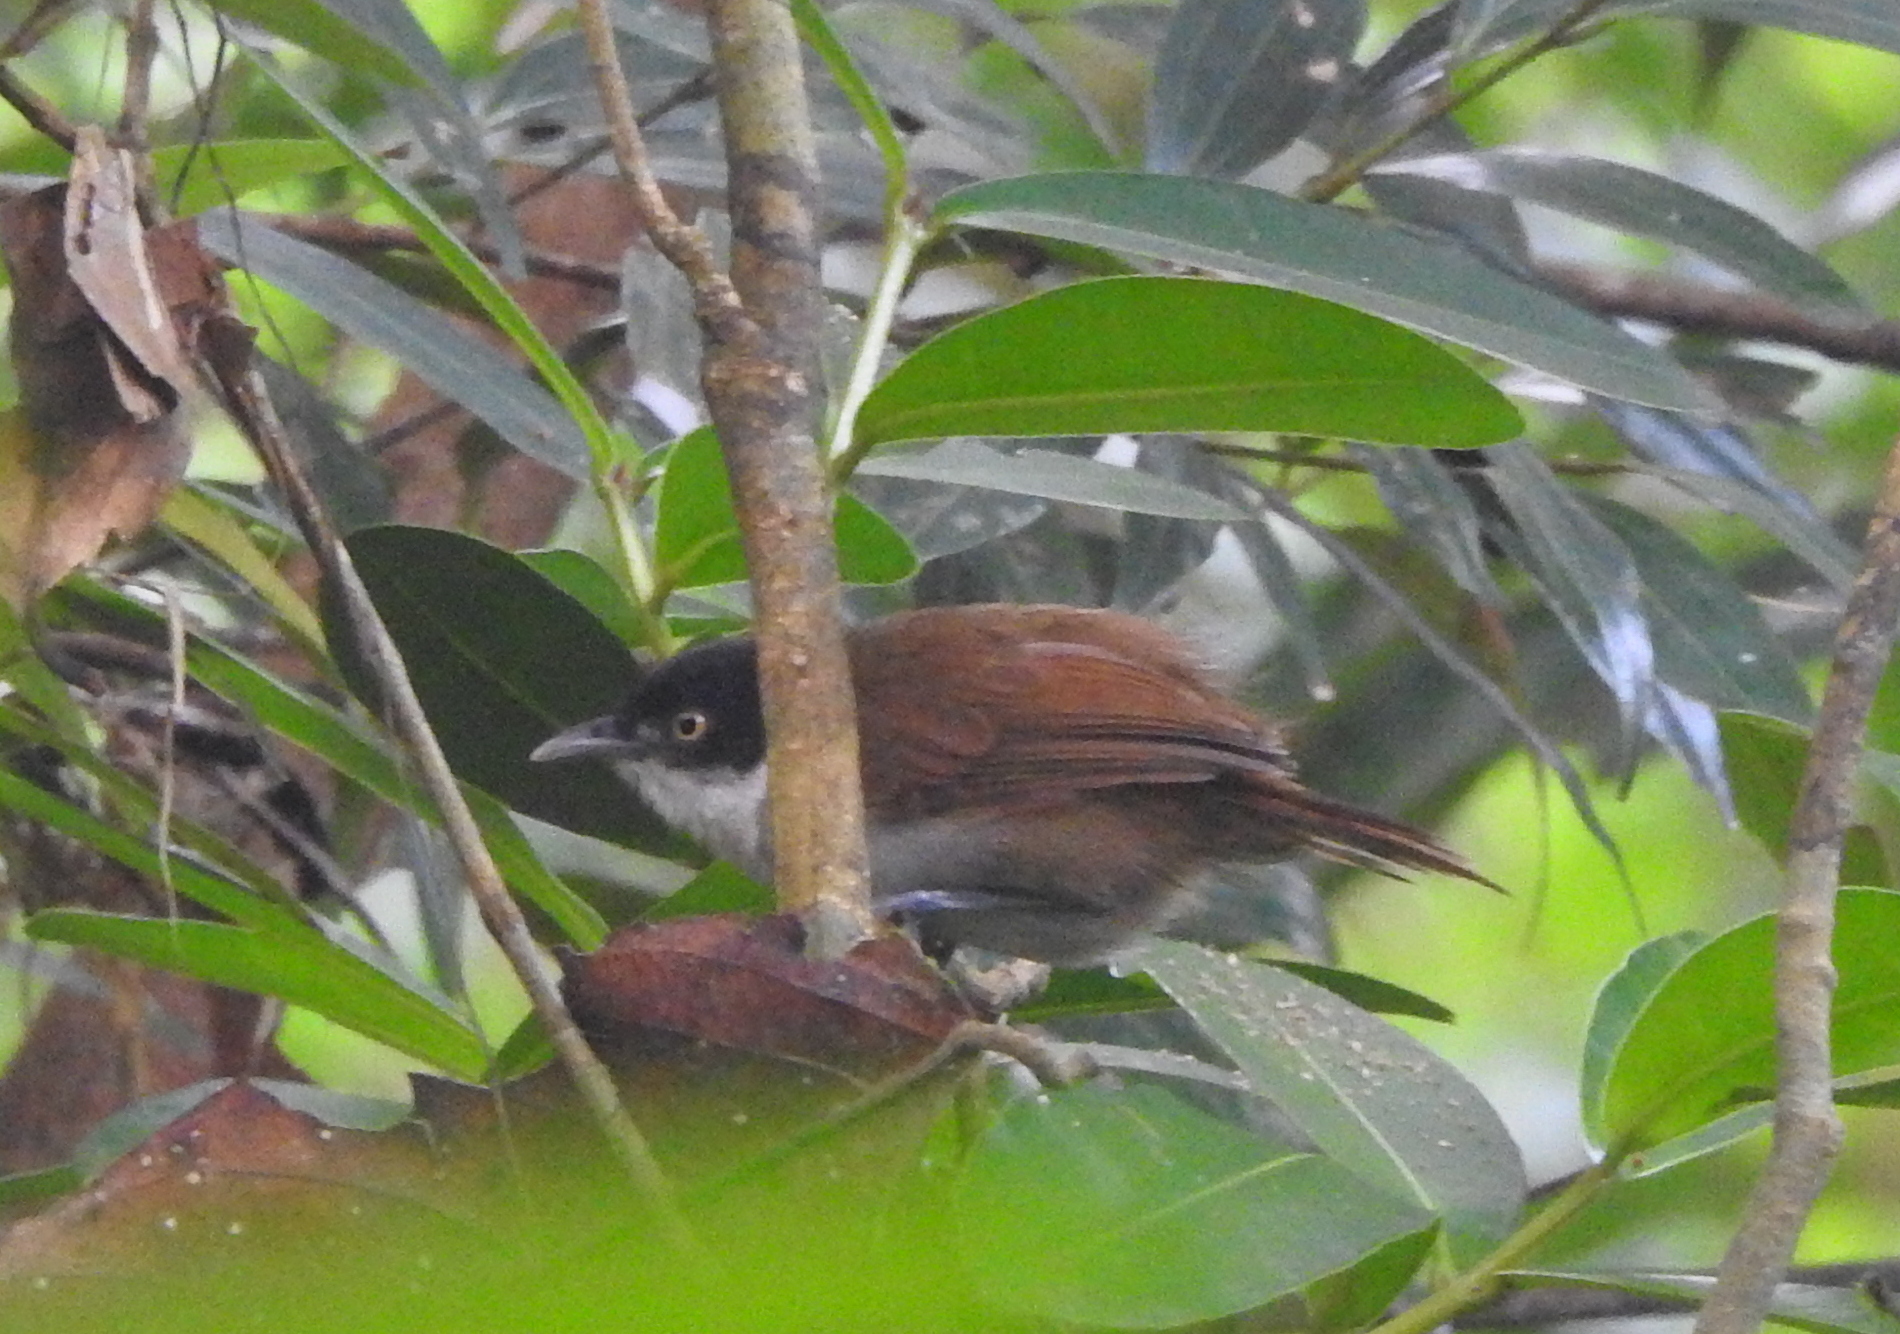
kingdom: Animalia
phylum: Chordata
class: Aves
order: Passeriformes
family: Timaliidae
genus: Rhopocichla
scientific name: Rhopocichla atriceps
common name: Dark-fronted babbler
